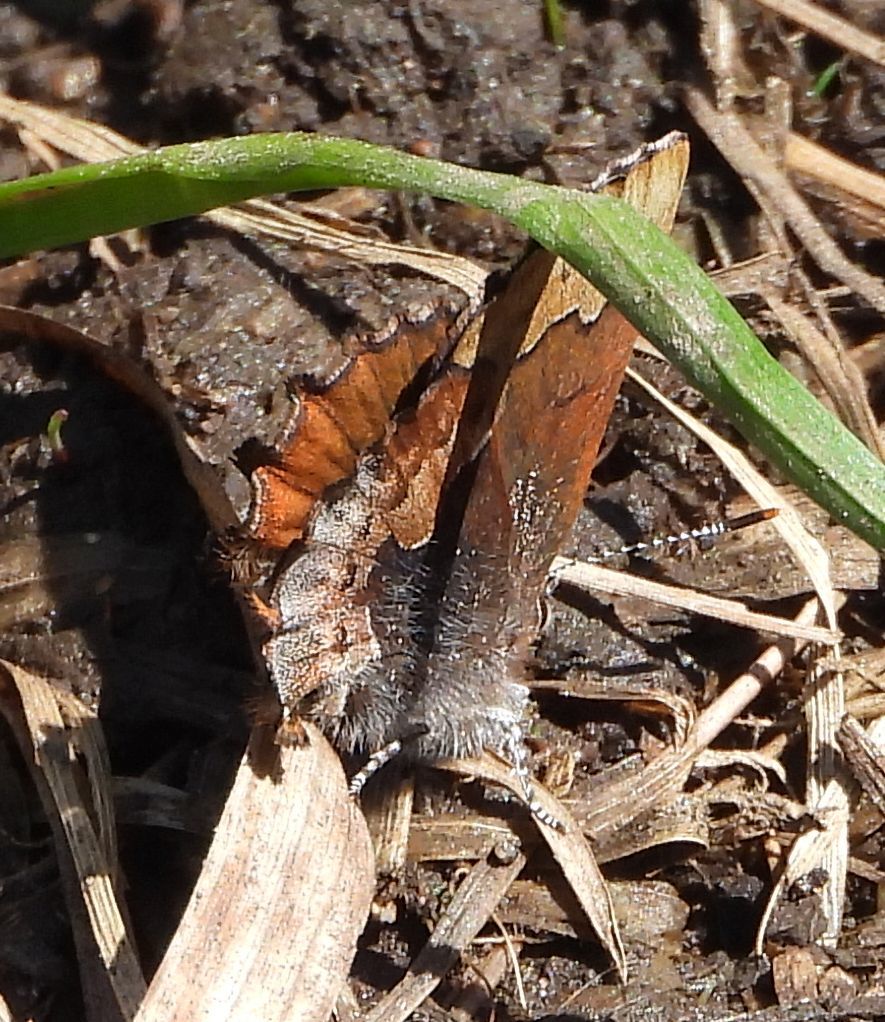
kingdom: Animalia
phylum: Arthropoda
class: Insecta
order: Lepidoptera
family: Lycaenidae
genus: Incisalia
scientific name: Incisalia henrici
